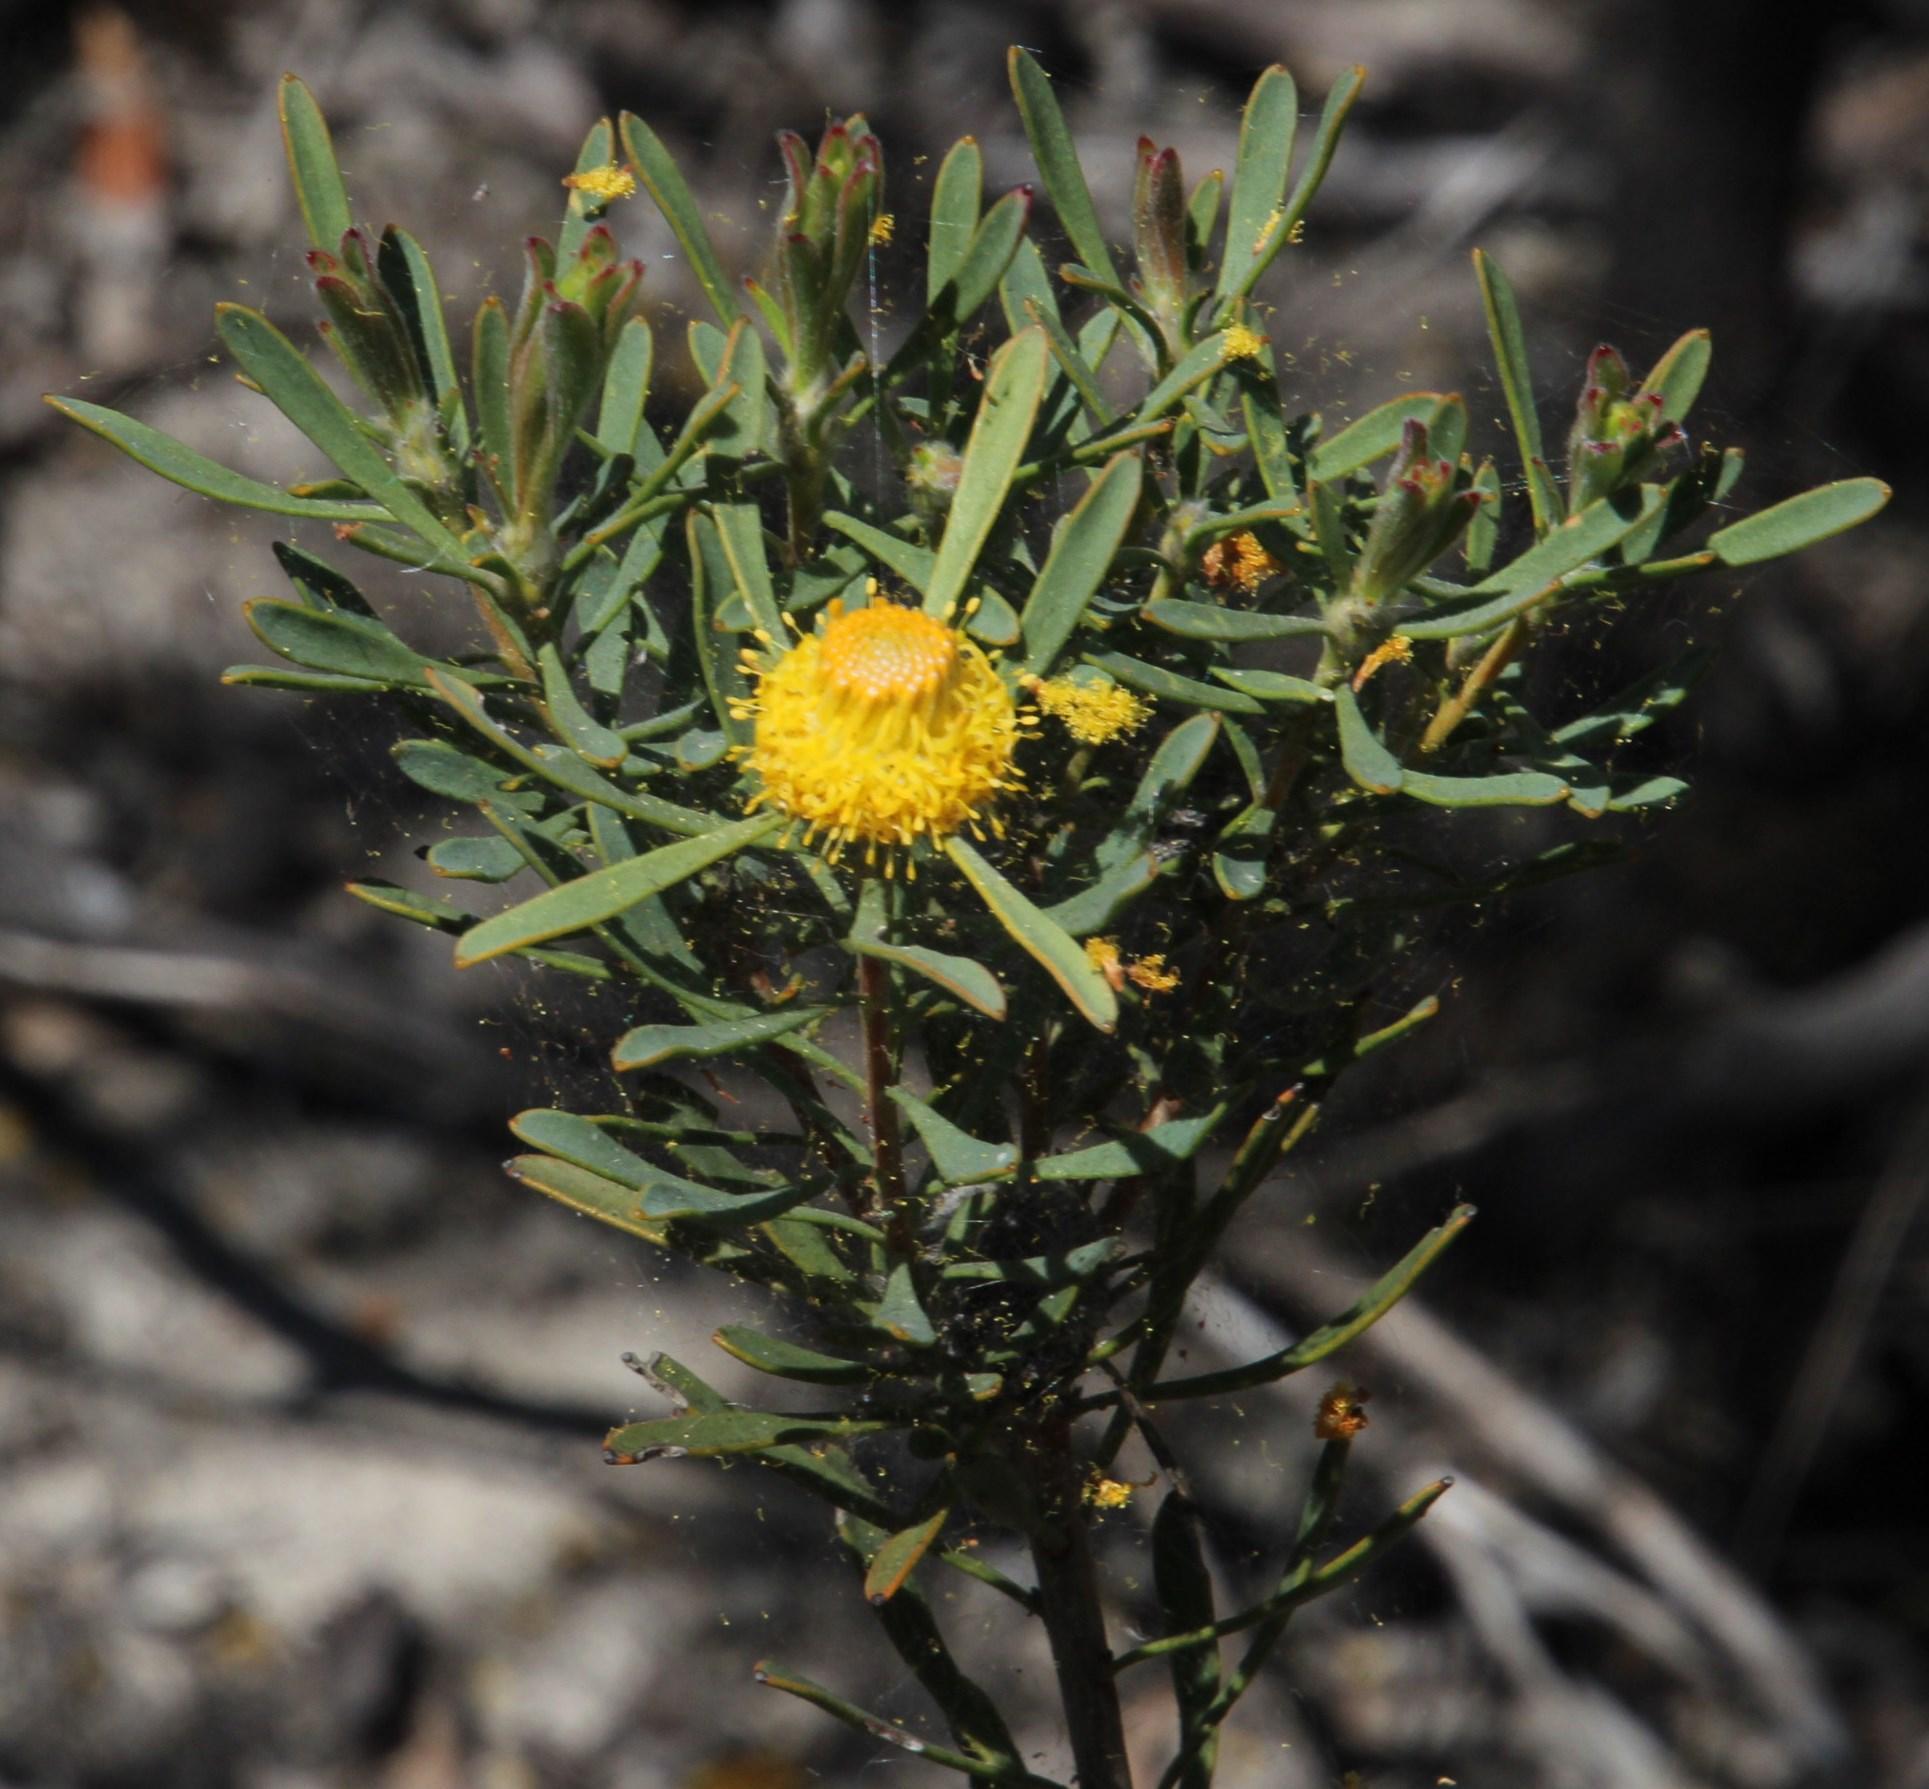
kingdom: Plantae
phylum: Tracheophyta
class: Magnoliopsida
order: Proteales
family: Proteaceae
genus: Leucadendron
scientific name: Leucadendron lanigerum
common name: Shale conebush
